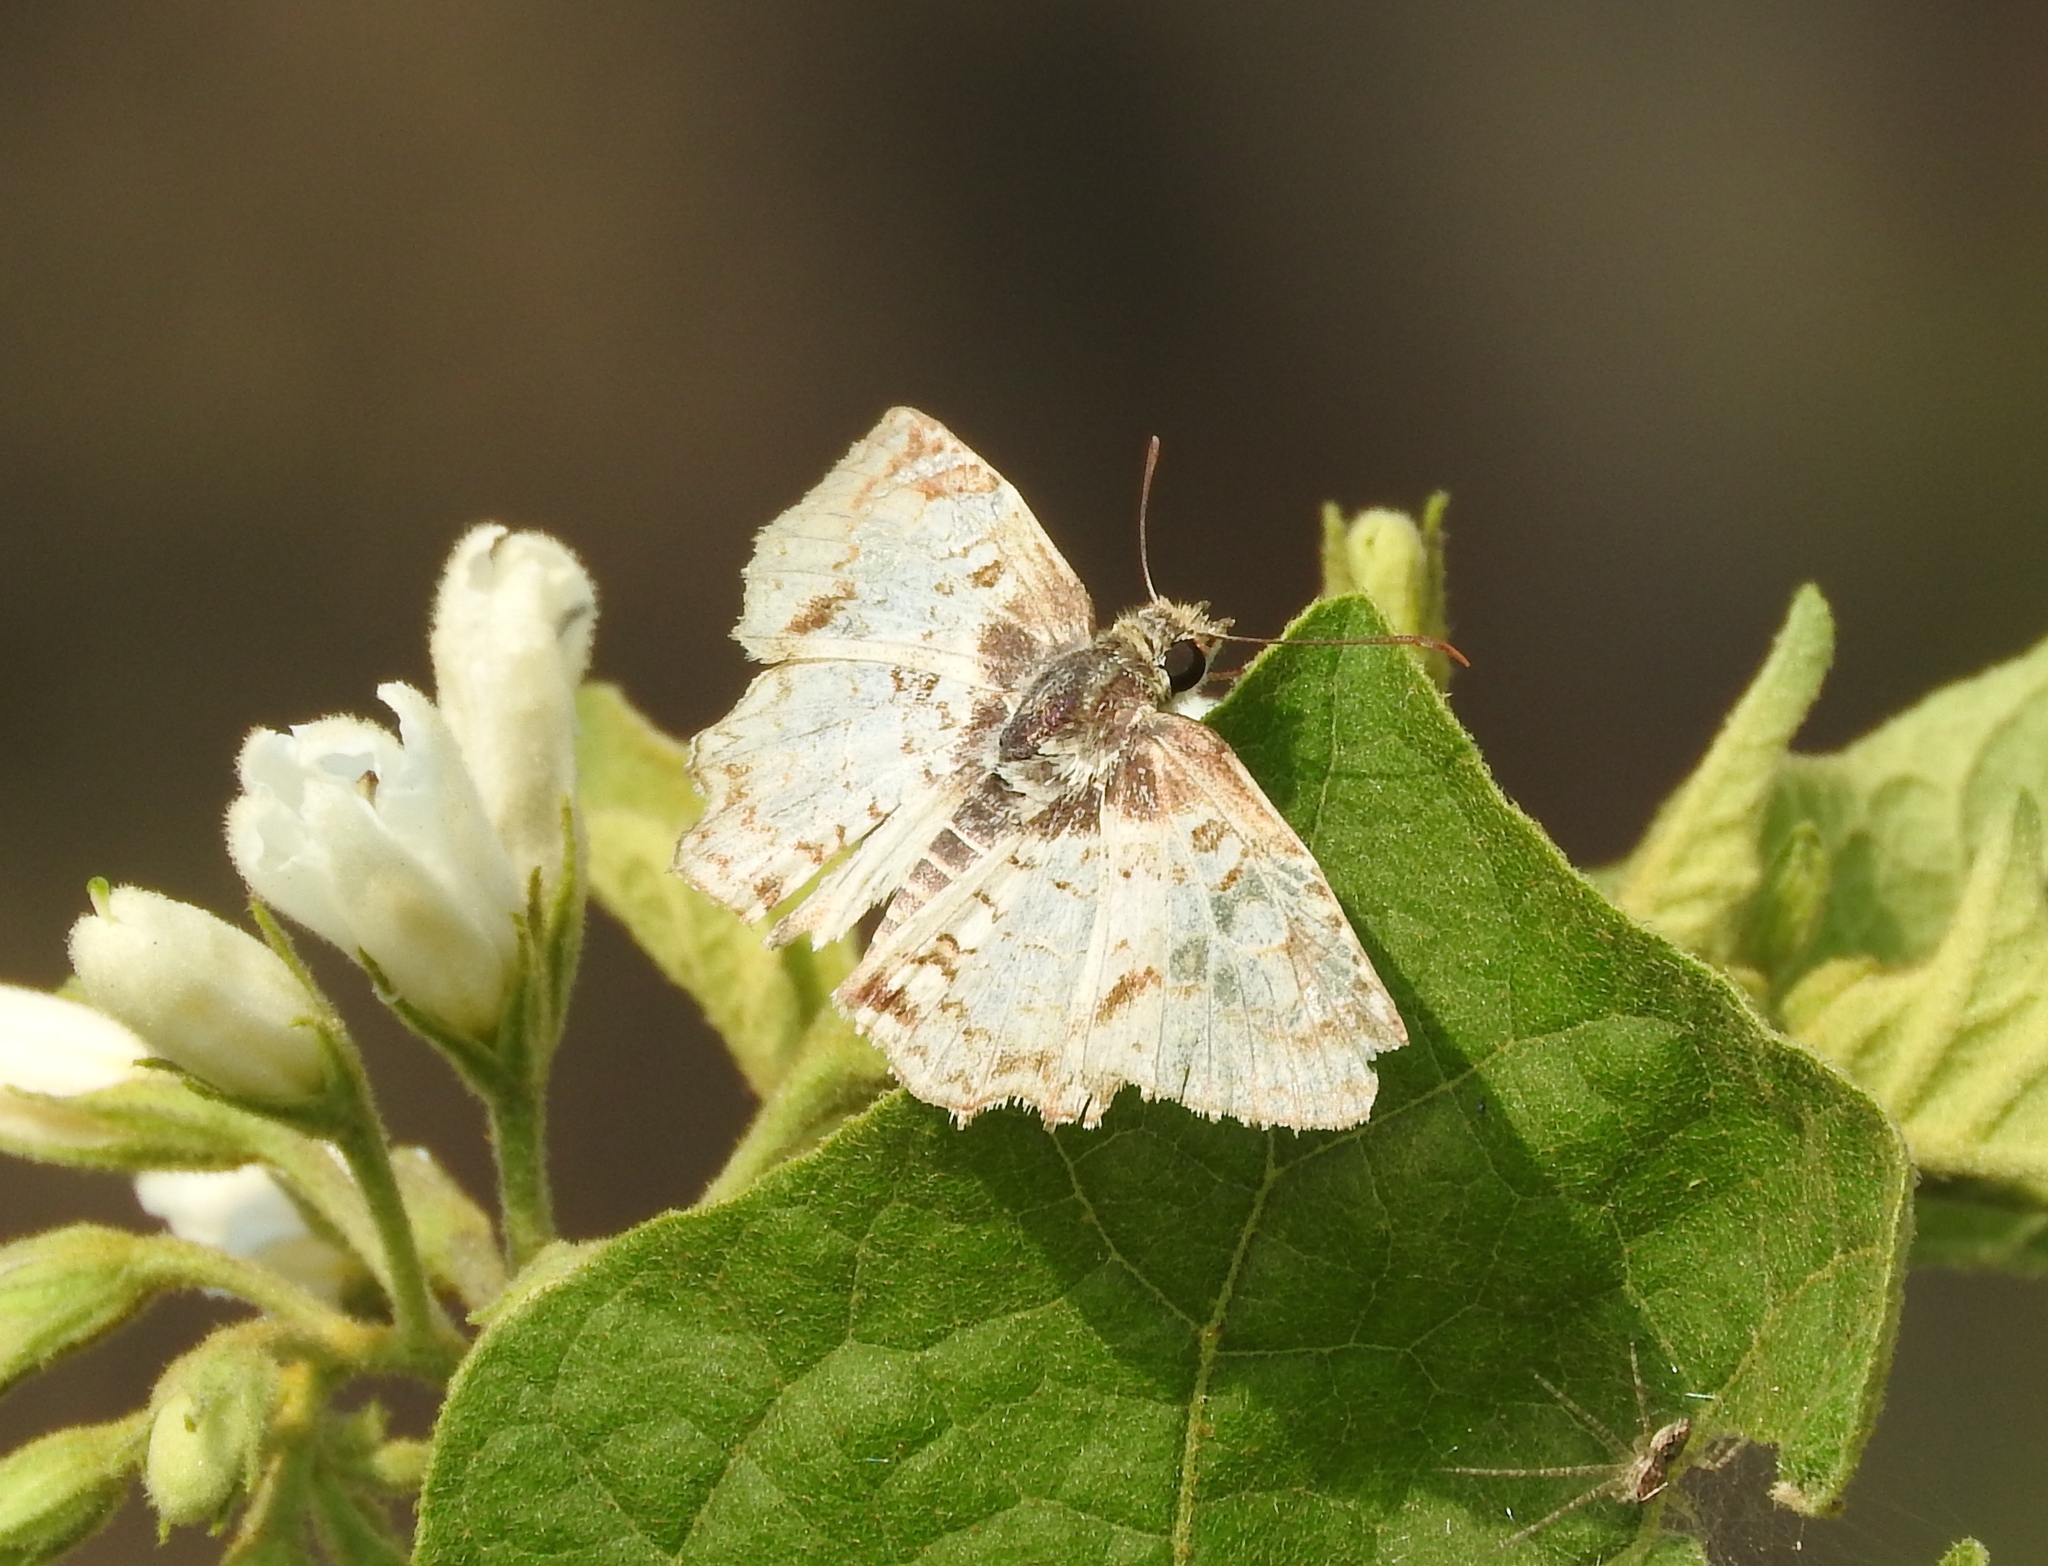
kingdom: Animalia
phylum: Arthropoda
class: Insecta
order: Lepidoptera
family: Hesperiidae
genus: Antigonus
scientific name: Antigonus emorsa
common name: White spurwing
